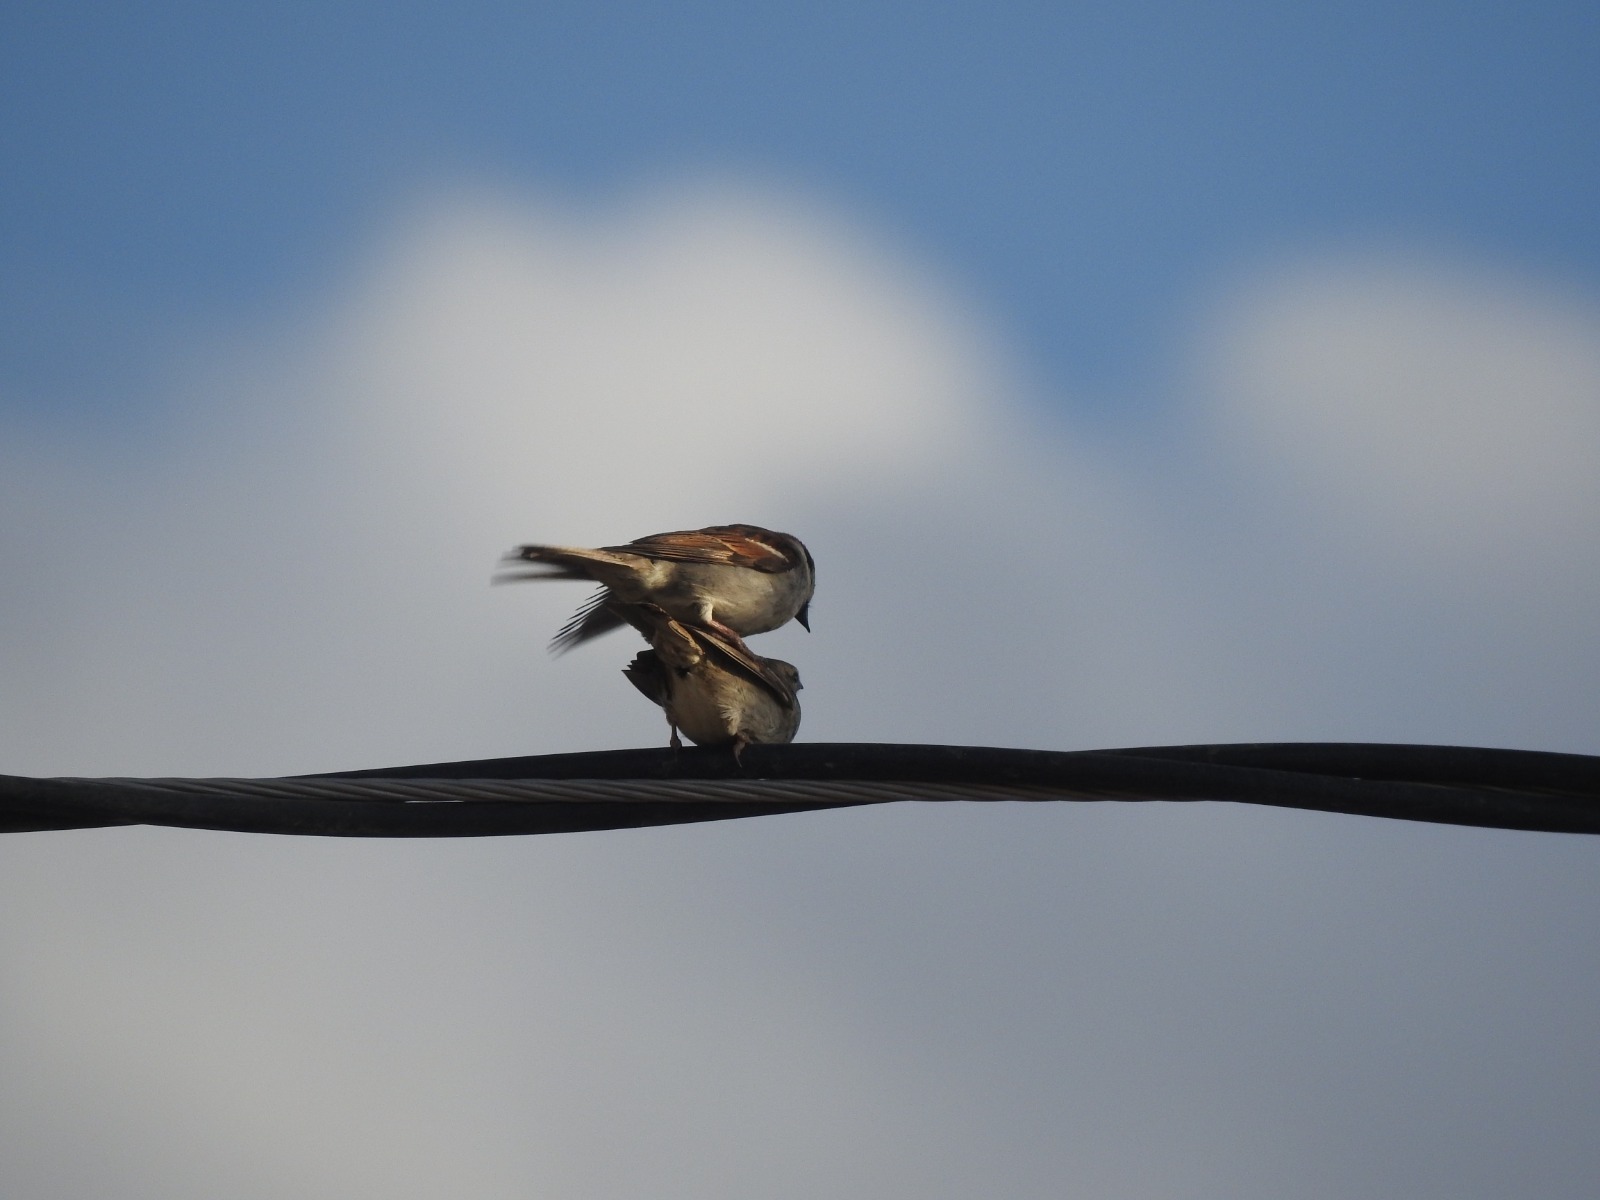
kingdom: Animalia
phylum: Chordata
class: Aves
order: Passeriformes
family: Passeridae
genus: Passer
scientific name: Passer domesticus
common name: House sparrow
